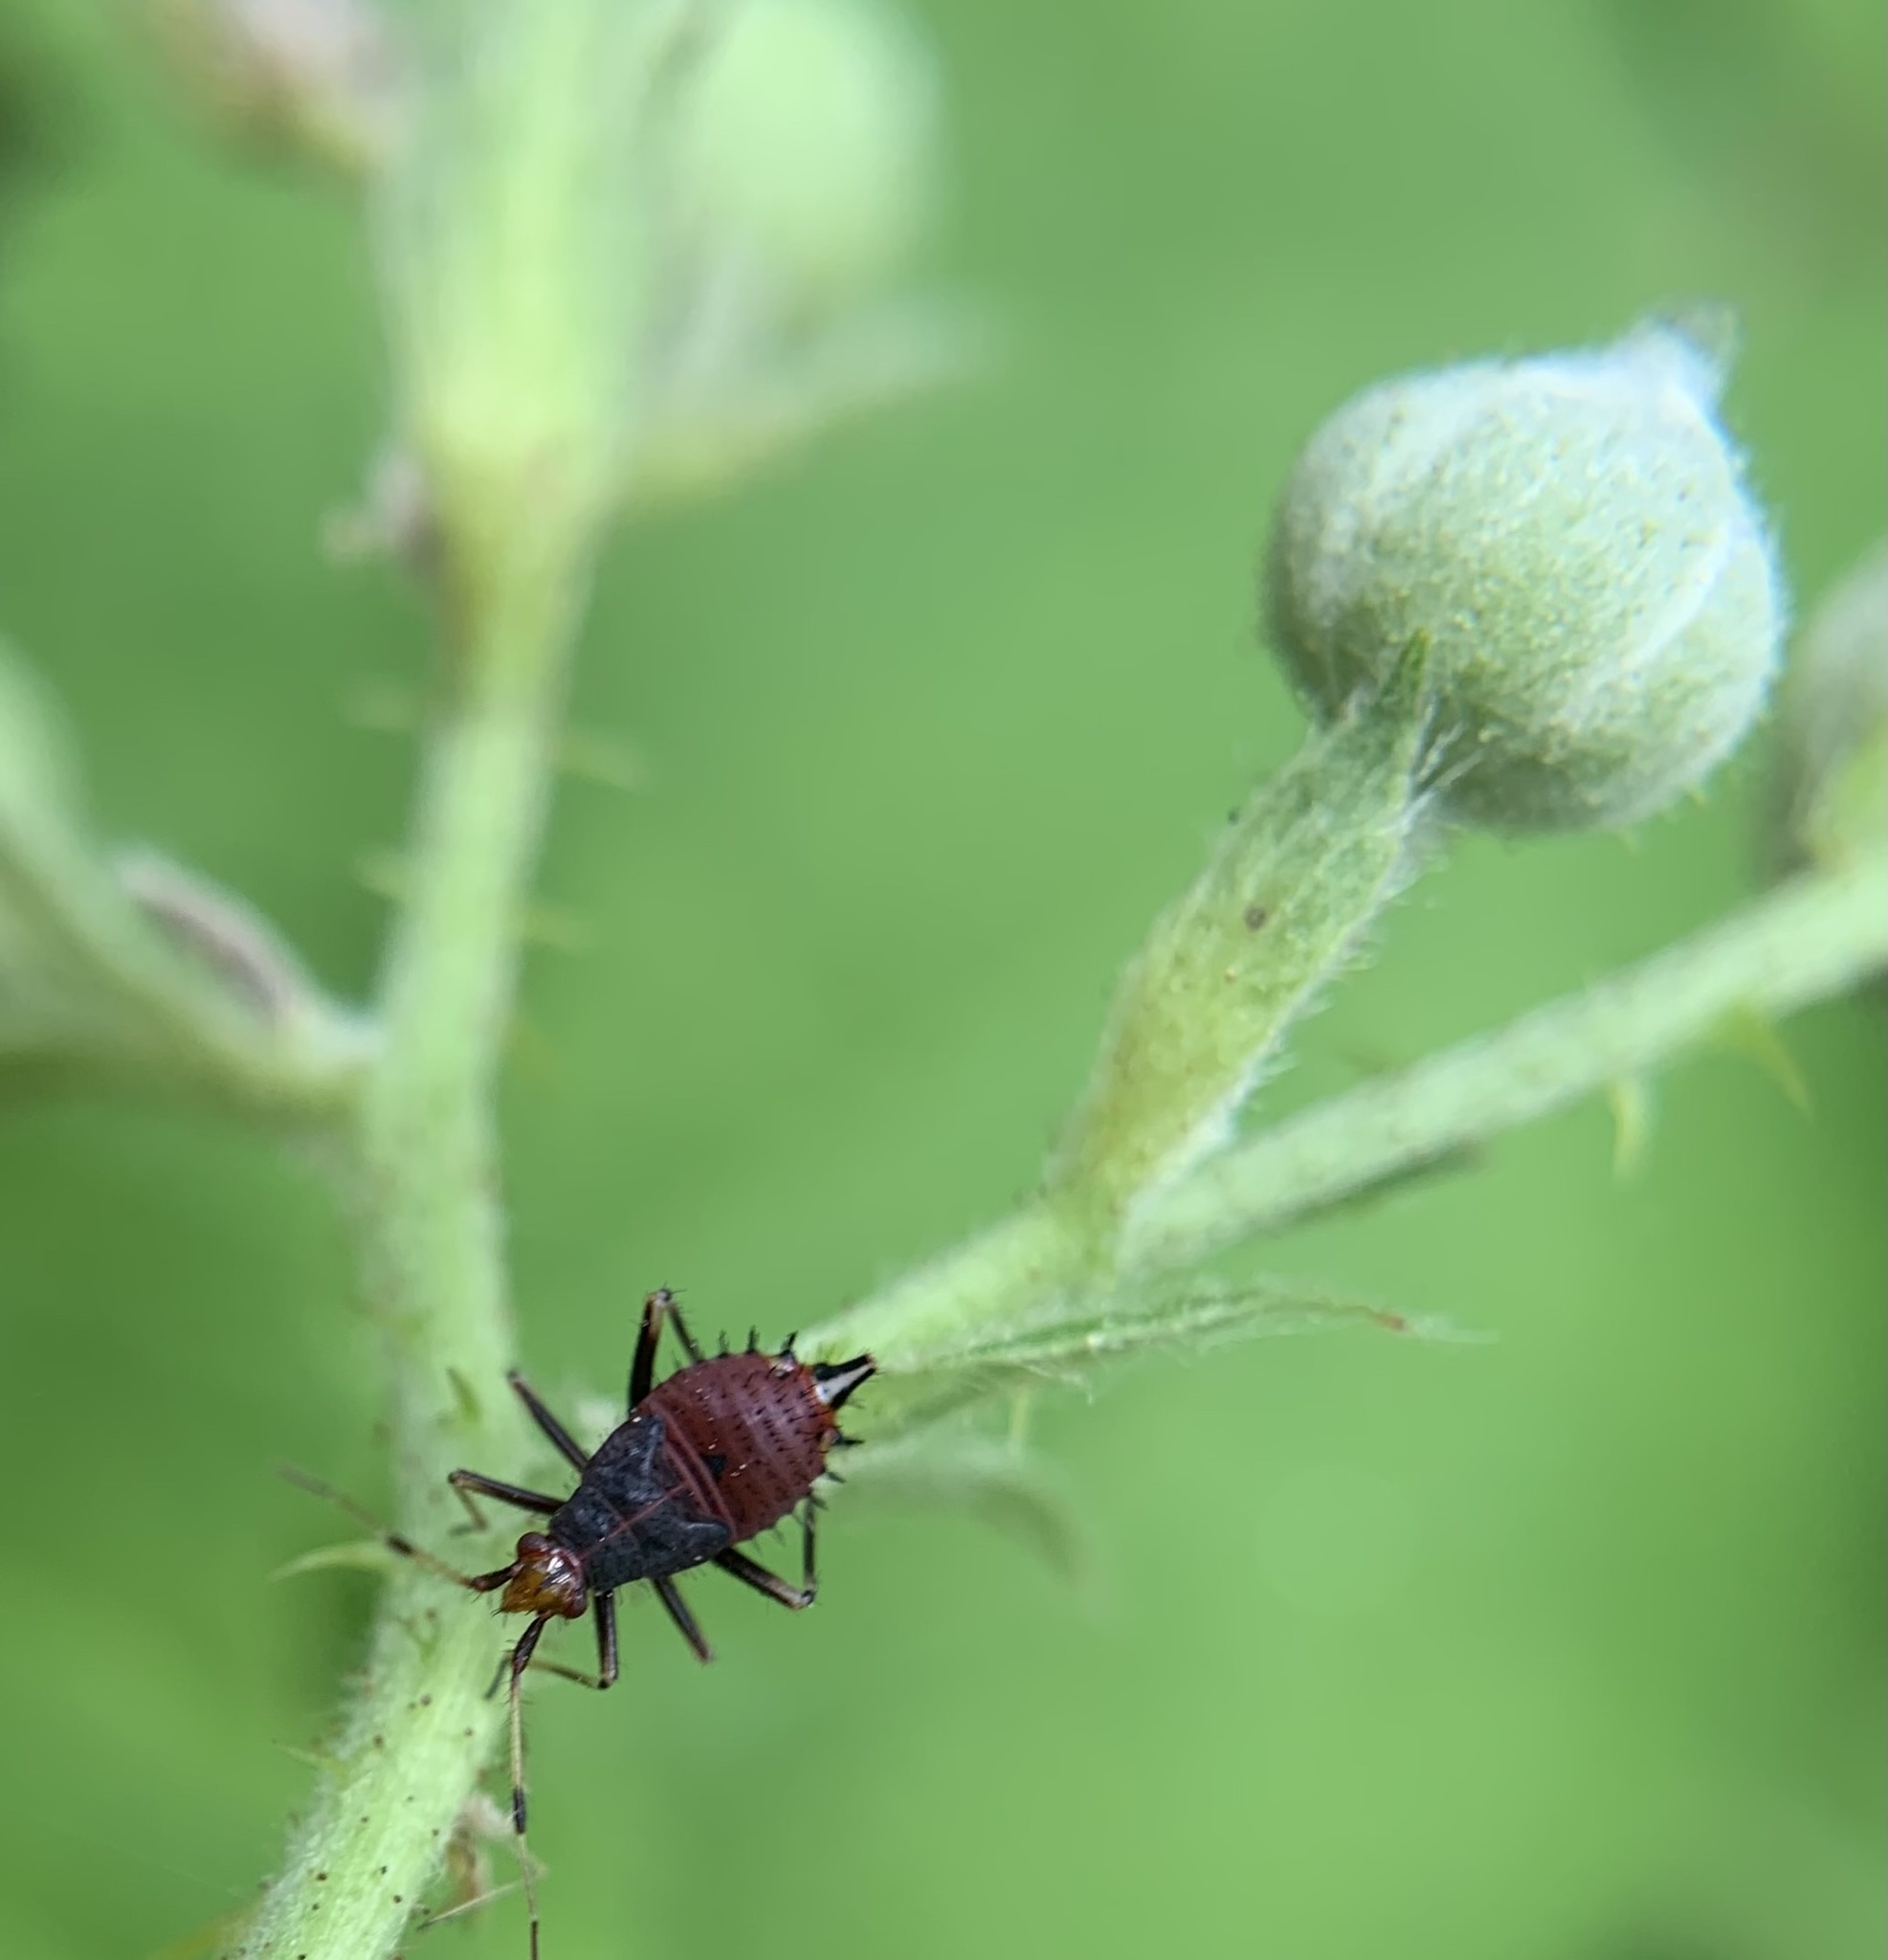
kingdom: Animalia
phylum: Arthropoda
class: Insecta
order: Hemiptera
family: Miridae
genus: Deraeocoris
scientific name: Deraeocoris ruber
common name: Plant bug
